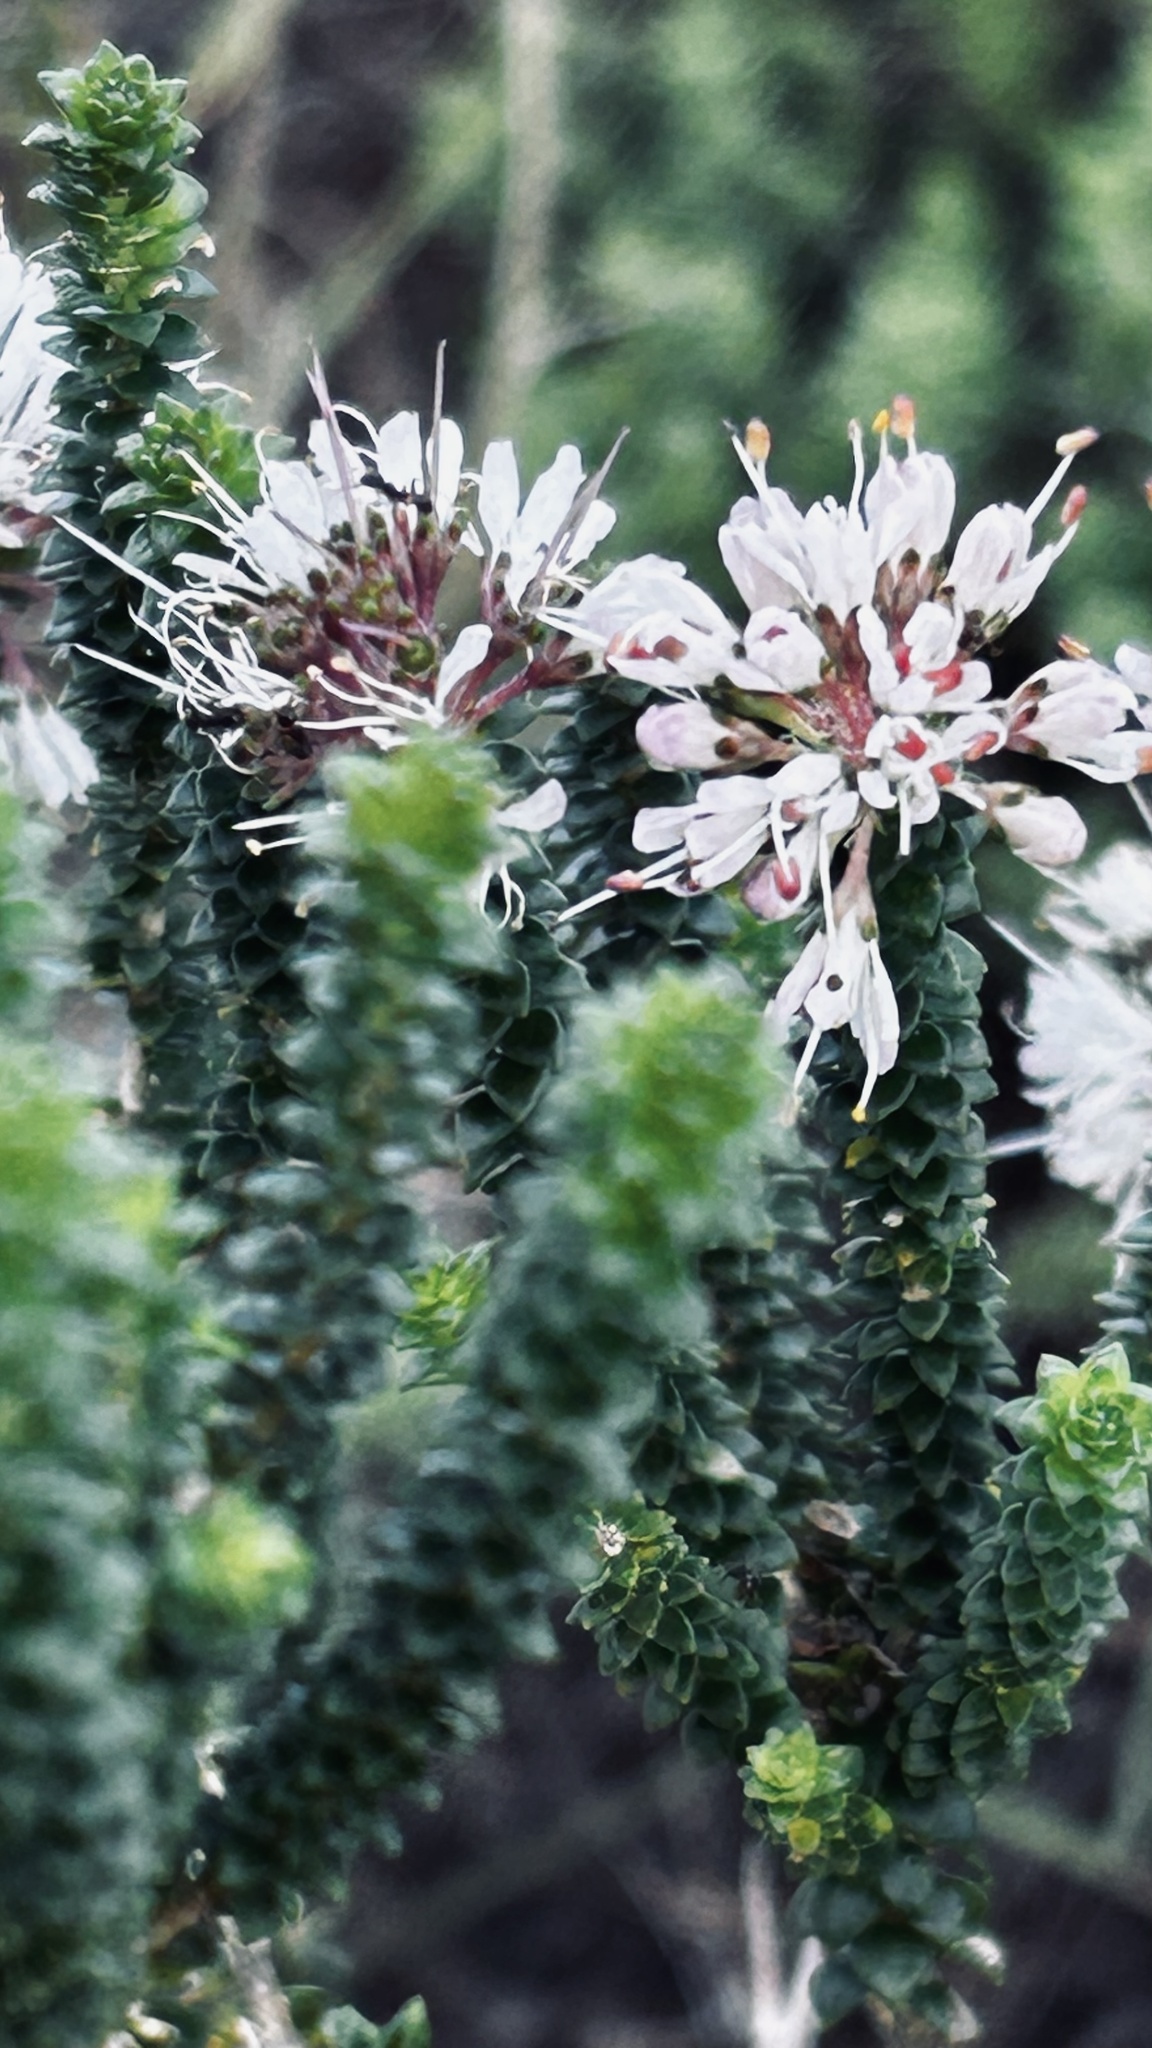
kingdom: Plantae
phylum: Tracheophyta
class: Magnoliopsida
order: Sapindales
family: Rutaceae
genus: Agathosma
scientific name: Agathosma muirii
